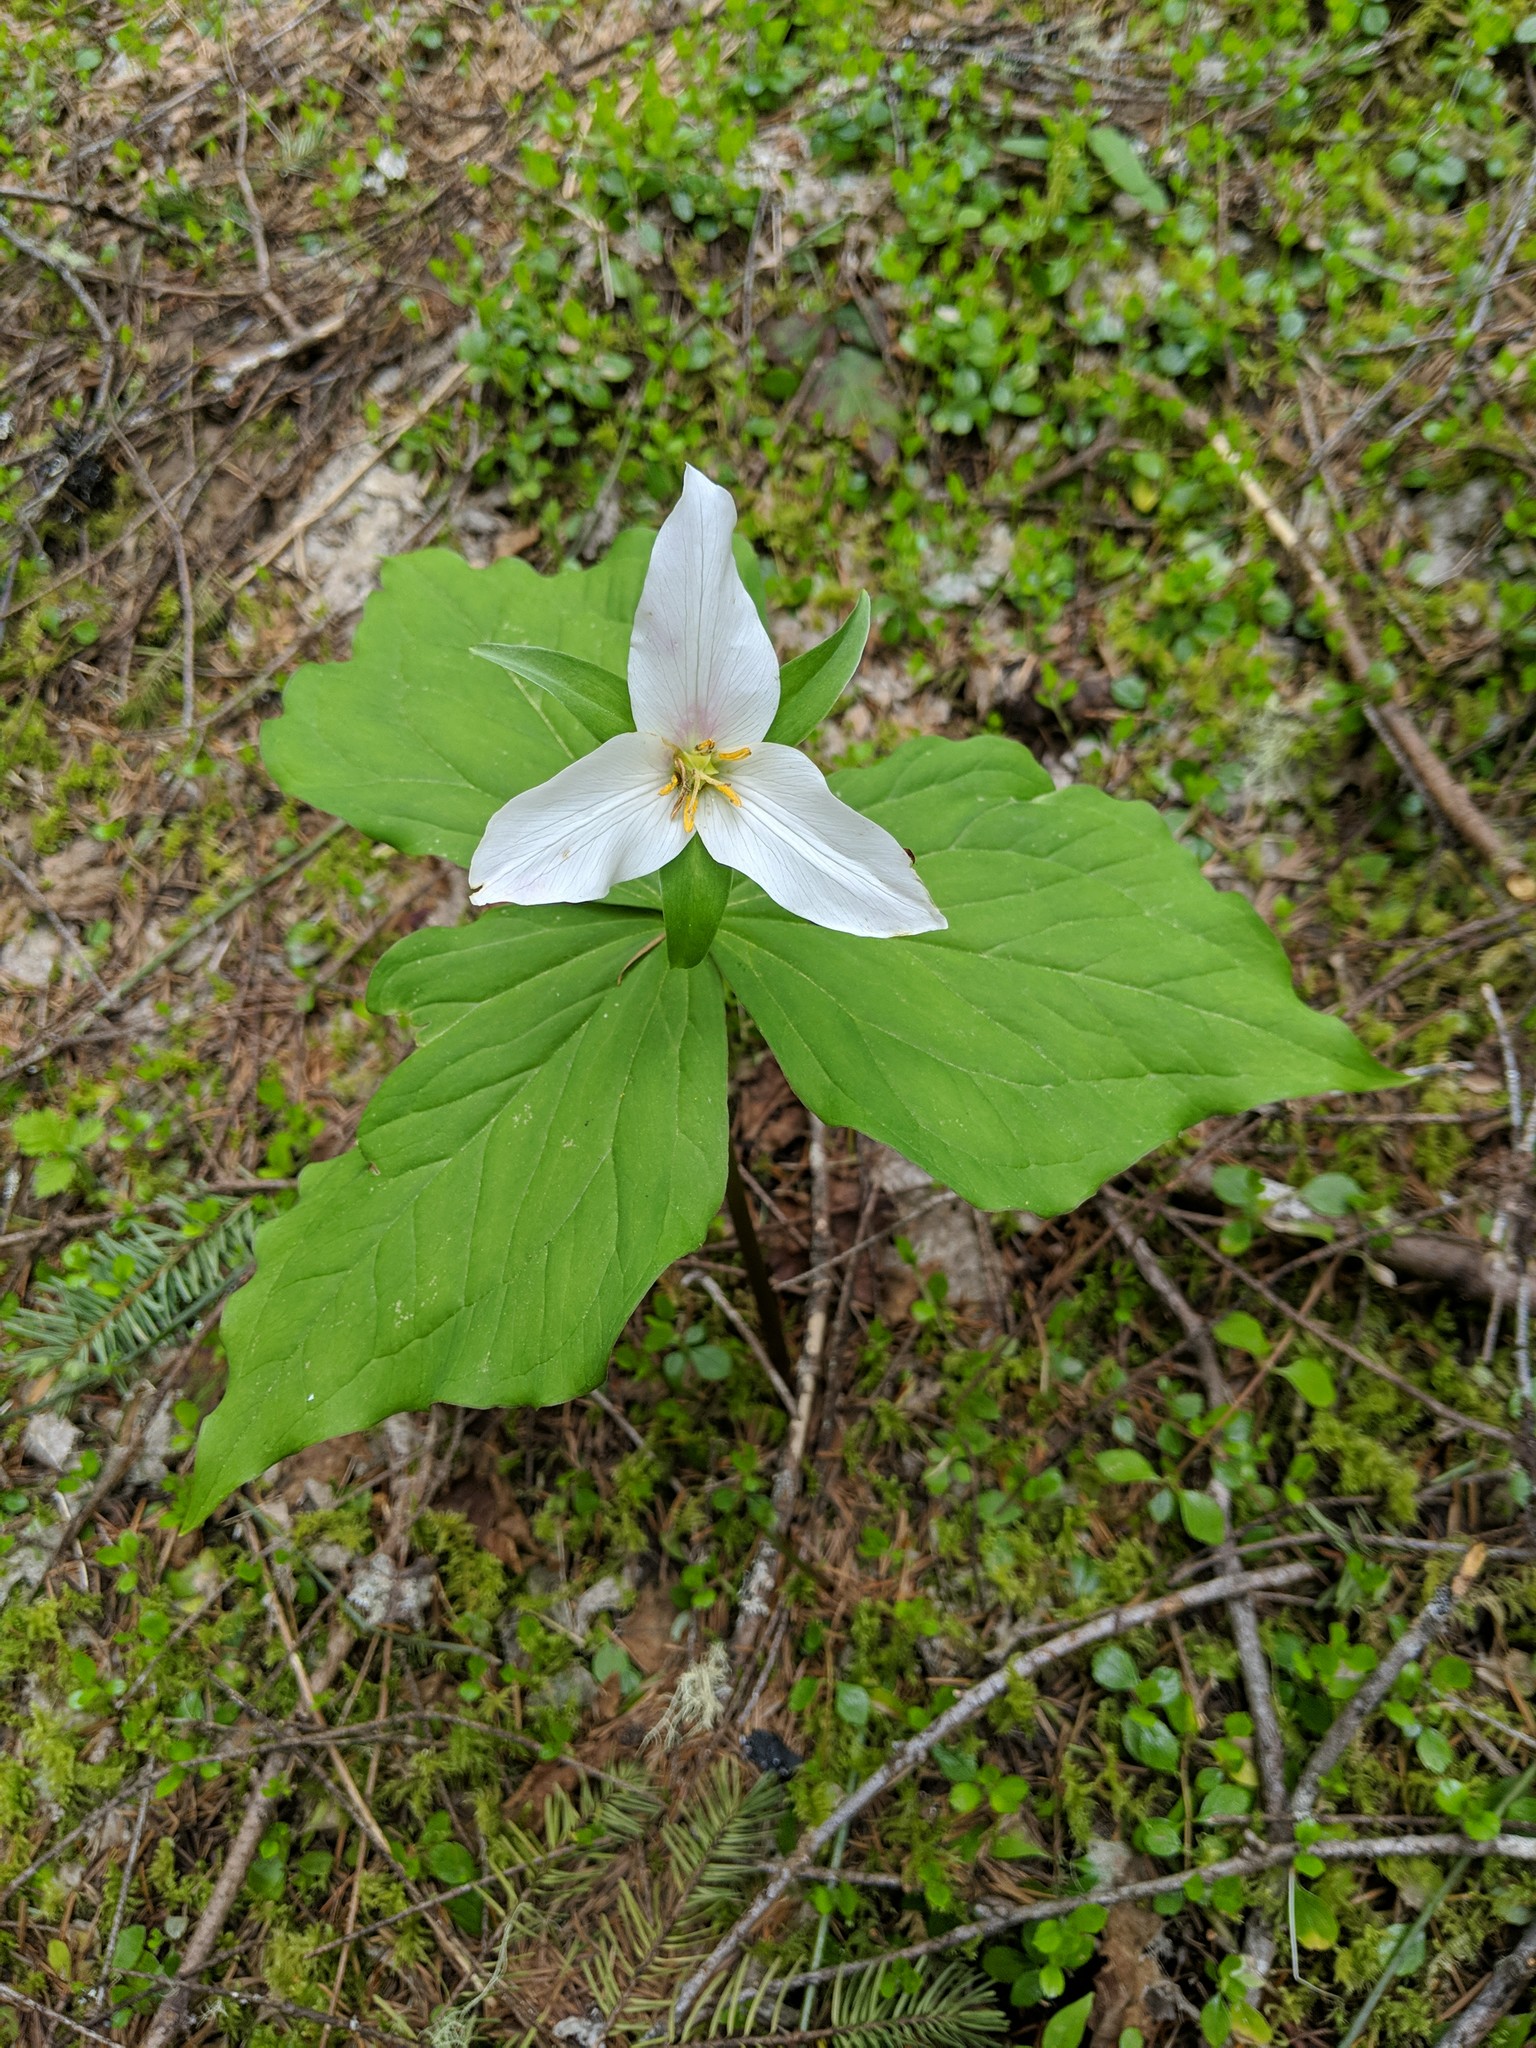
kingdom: Plantae
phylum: Tracheophyta
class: Liliopsida
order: Liliales
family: Melanthiaceae
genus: Trillium
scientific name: Trillium ovatum
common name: Pacific trillium
